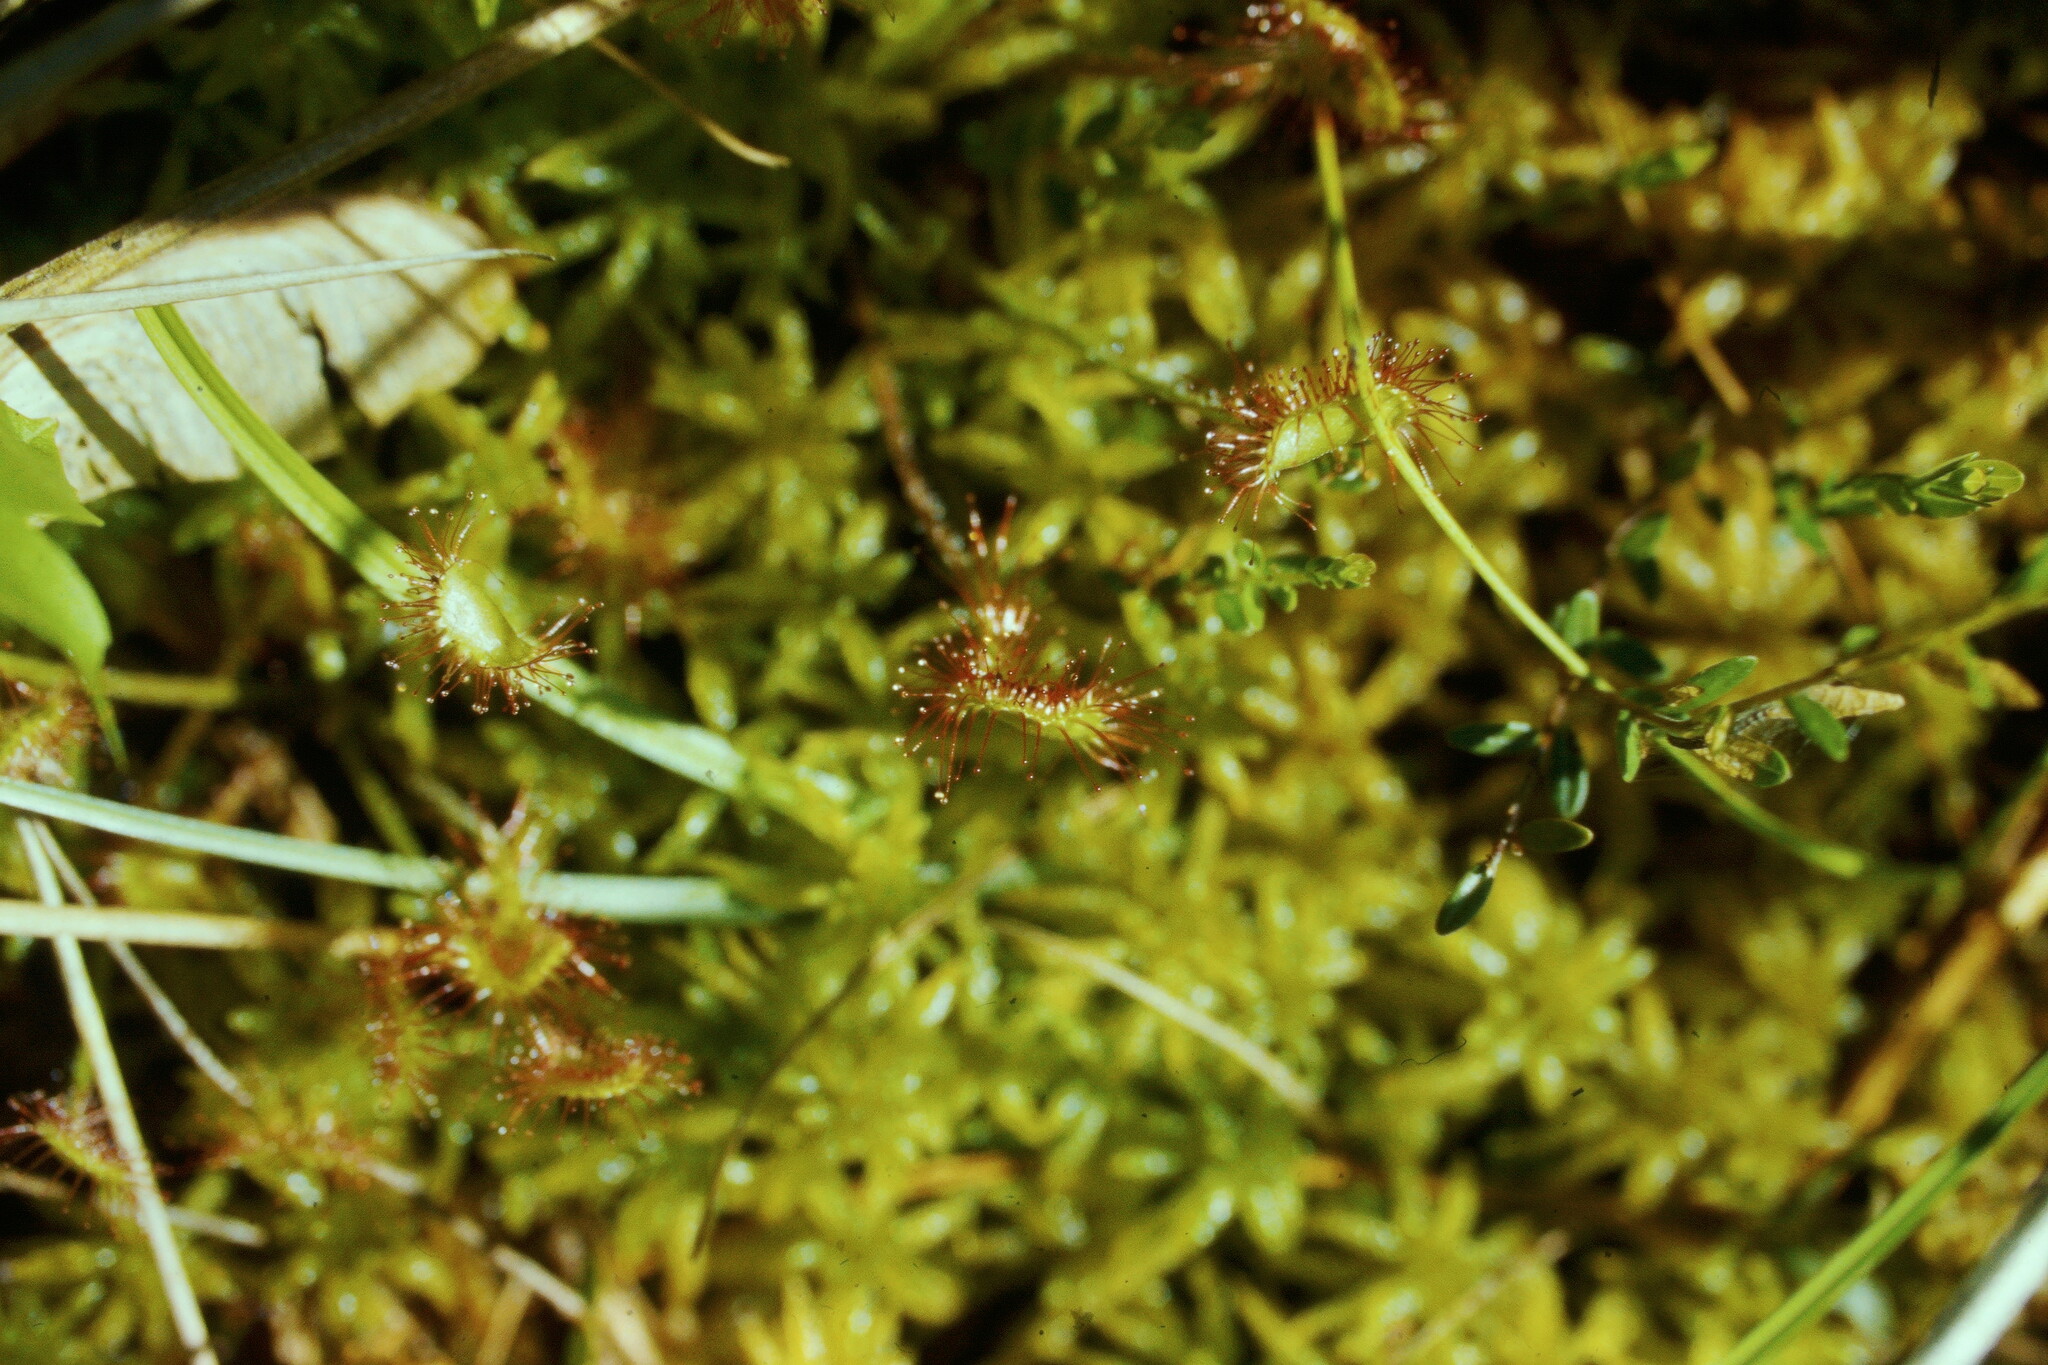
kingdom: Plantae
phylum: Tracheophyta
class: Magnoliopsida
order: Caryophyllales
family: Droseraceae
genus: Drosera
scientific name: Drosera rotundifolia
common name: Round-leaved sundew
